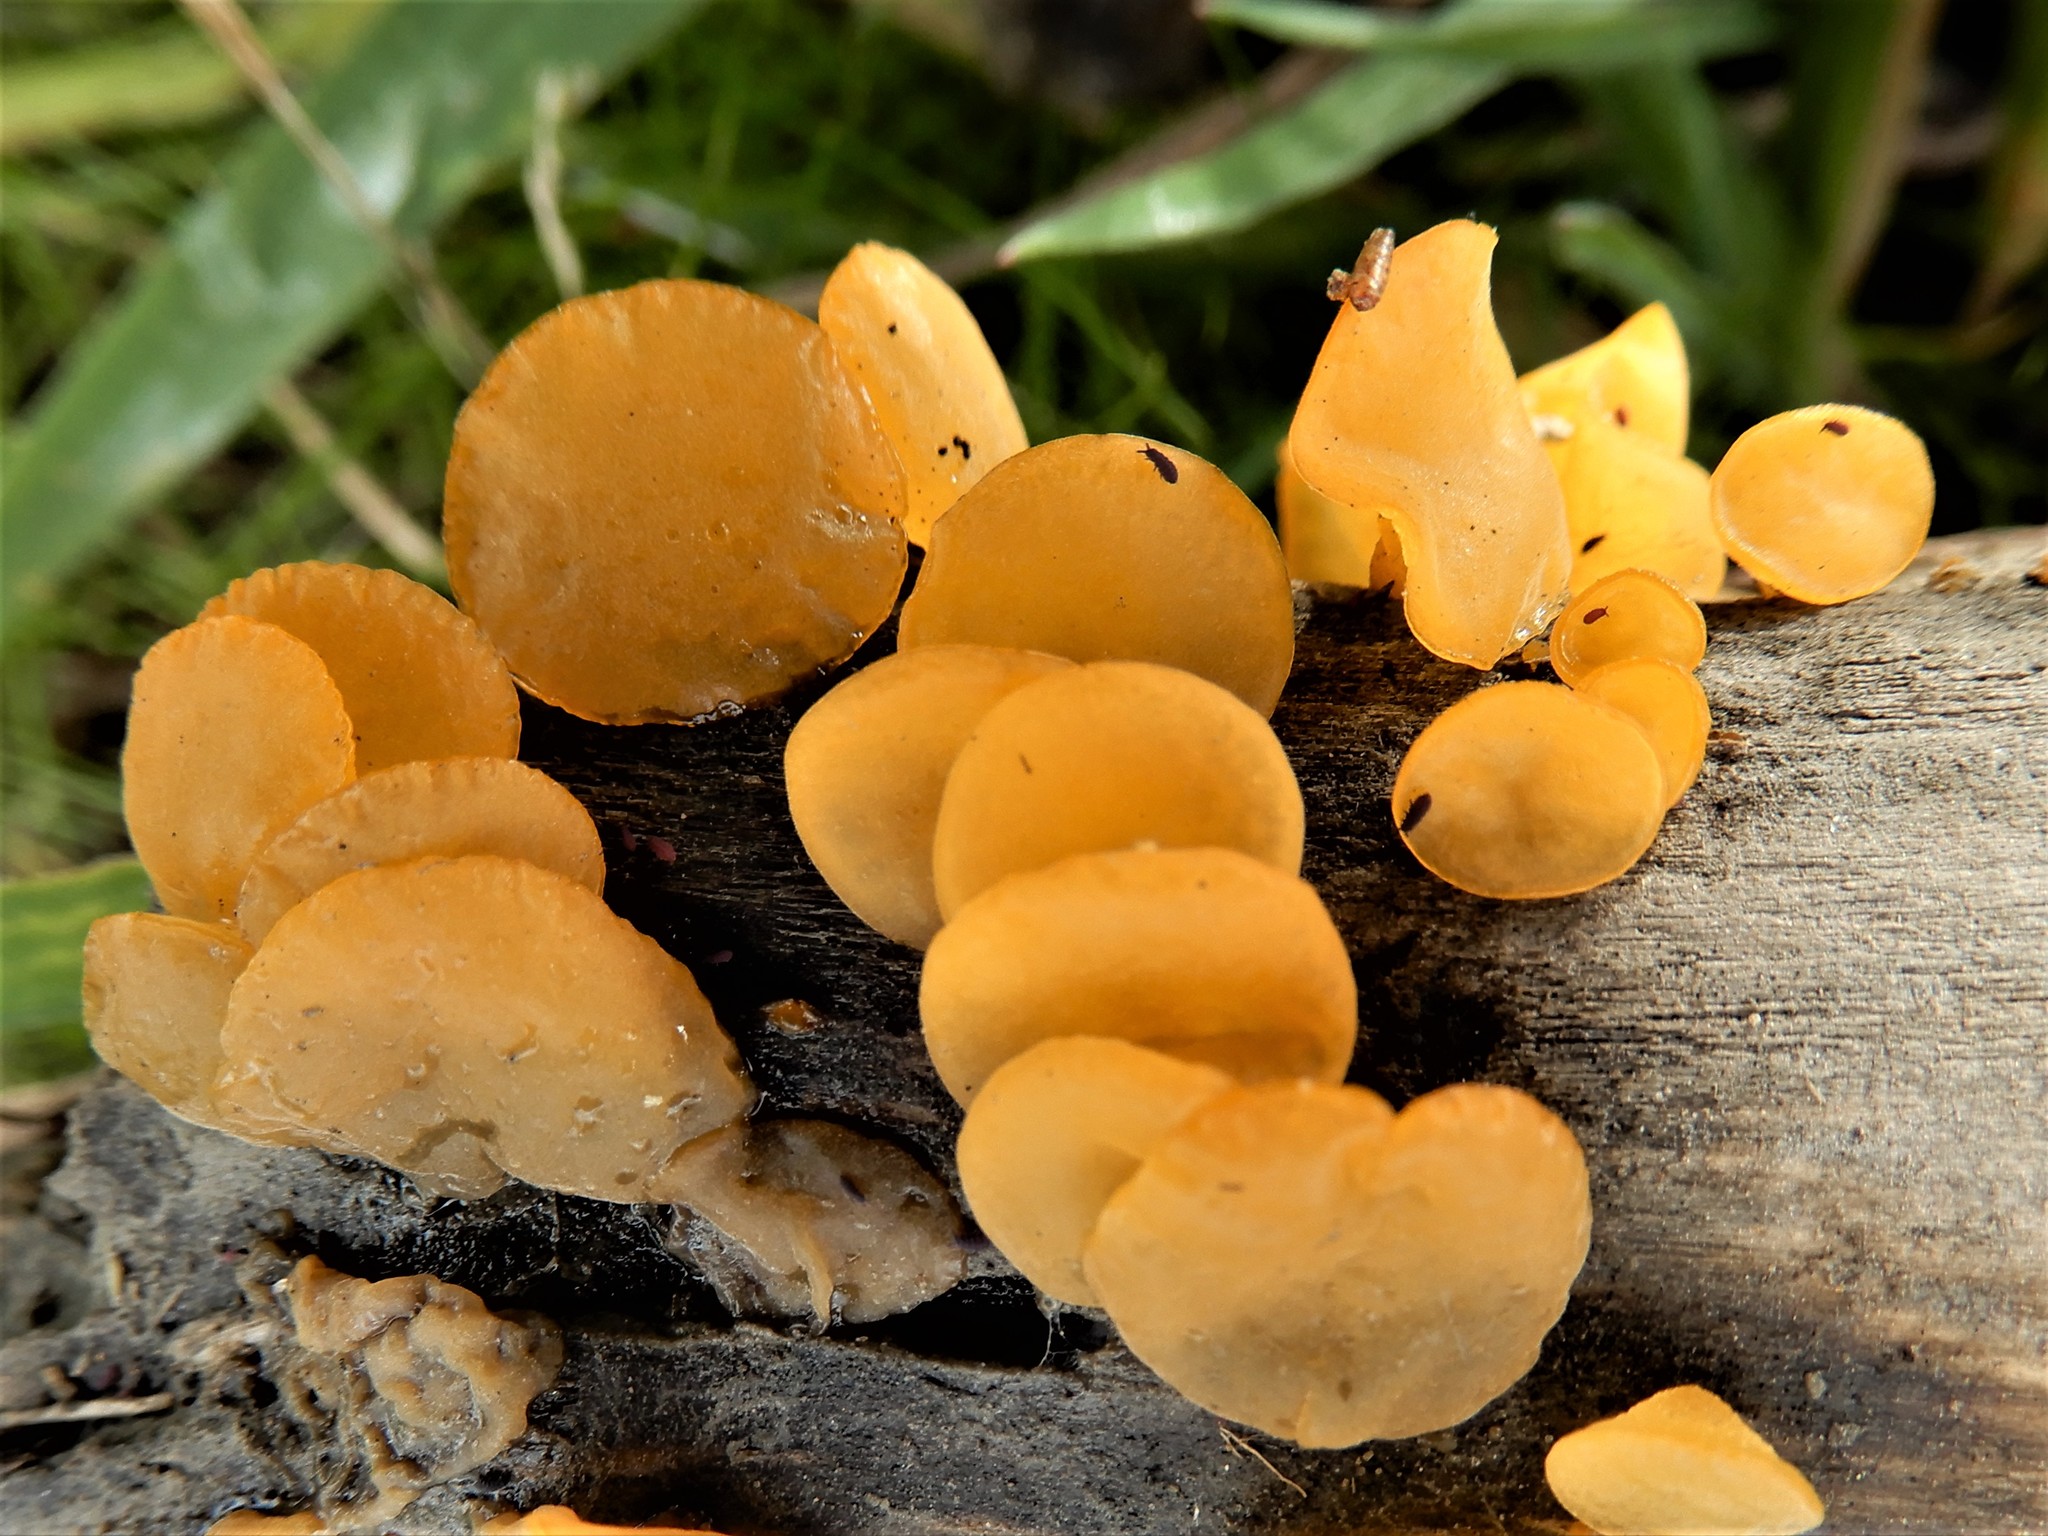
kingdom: Fungi
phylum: Basidiomycota
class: Dacrymycetes
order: Dacrymycetales
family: Dacrymycetaceae
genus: Heterotextus
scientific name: Heterotextus miltinus
